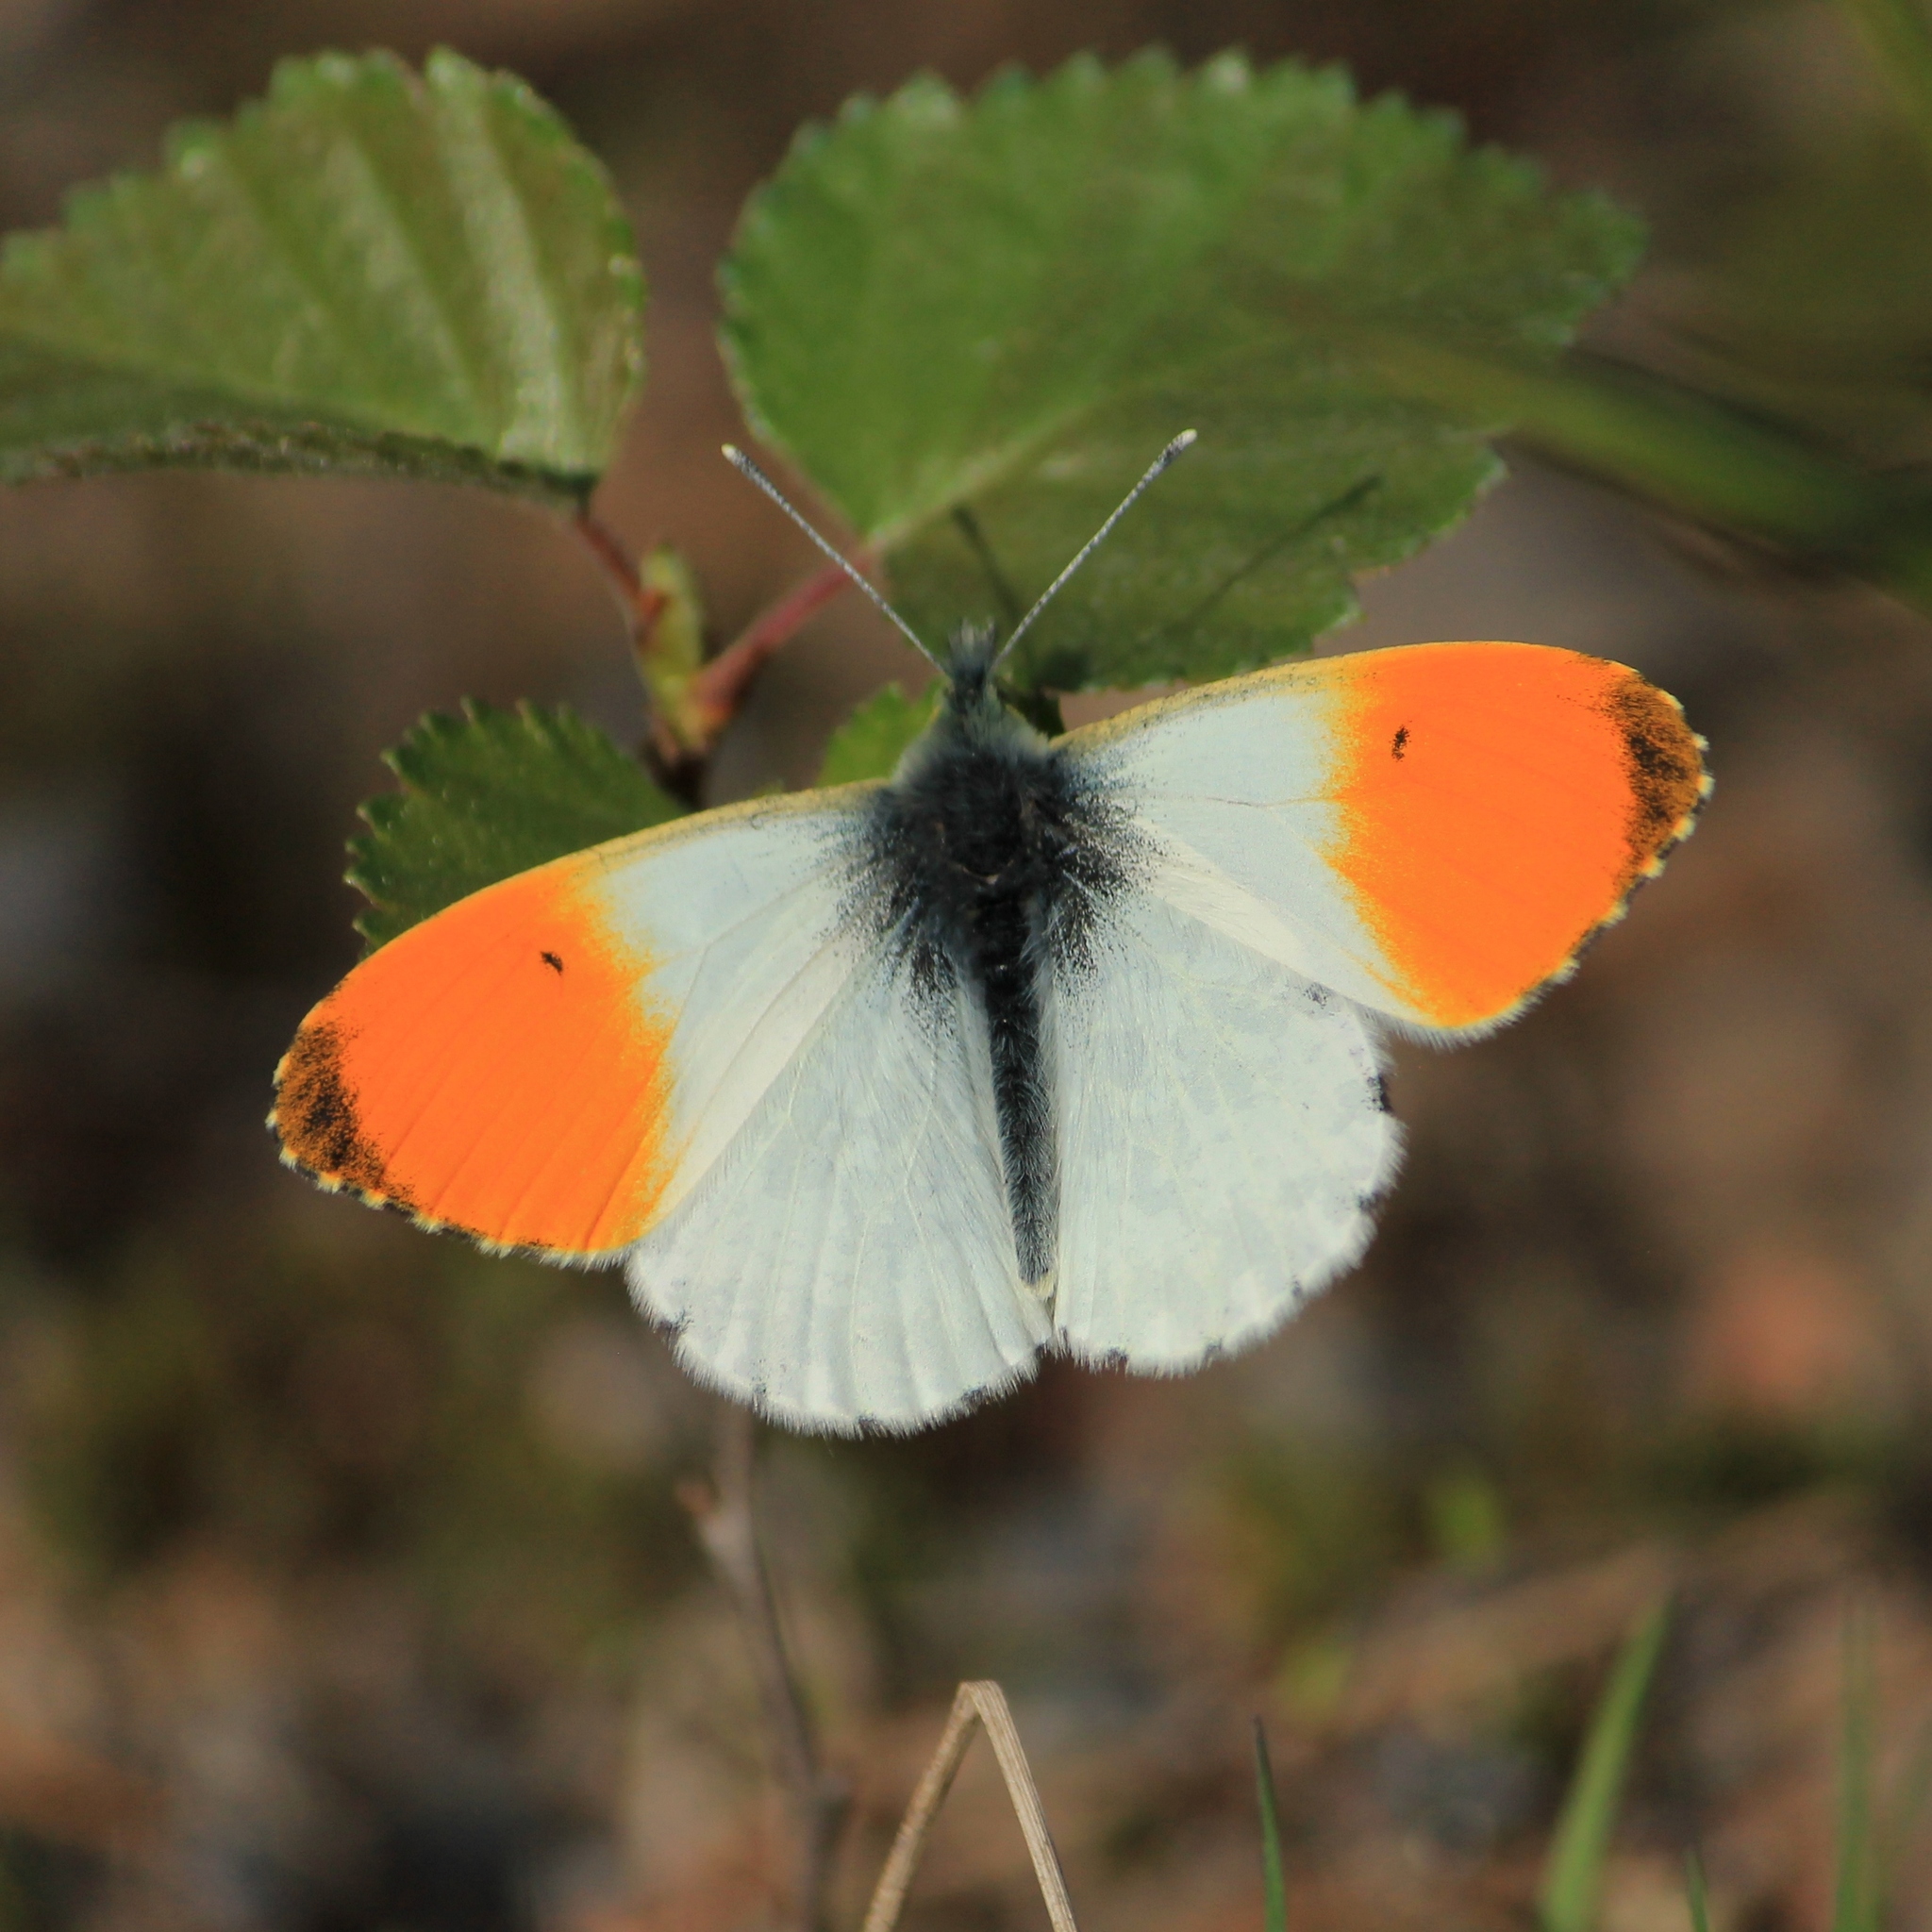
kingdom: Animalia
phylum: Arthropoda
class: Insecta
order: Lepidoptera
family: Pieridae
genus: Anthocharis
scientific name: Anthocharis cardamines
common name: Orange-tip
